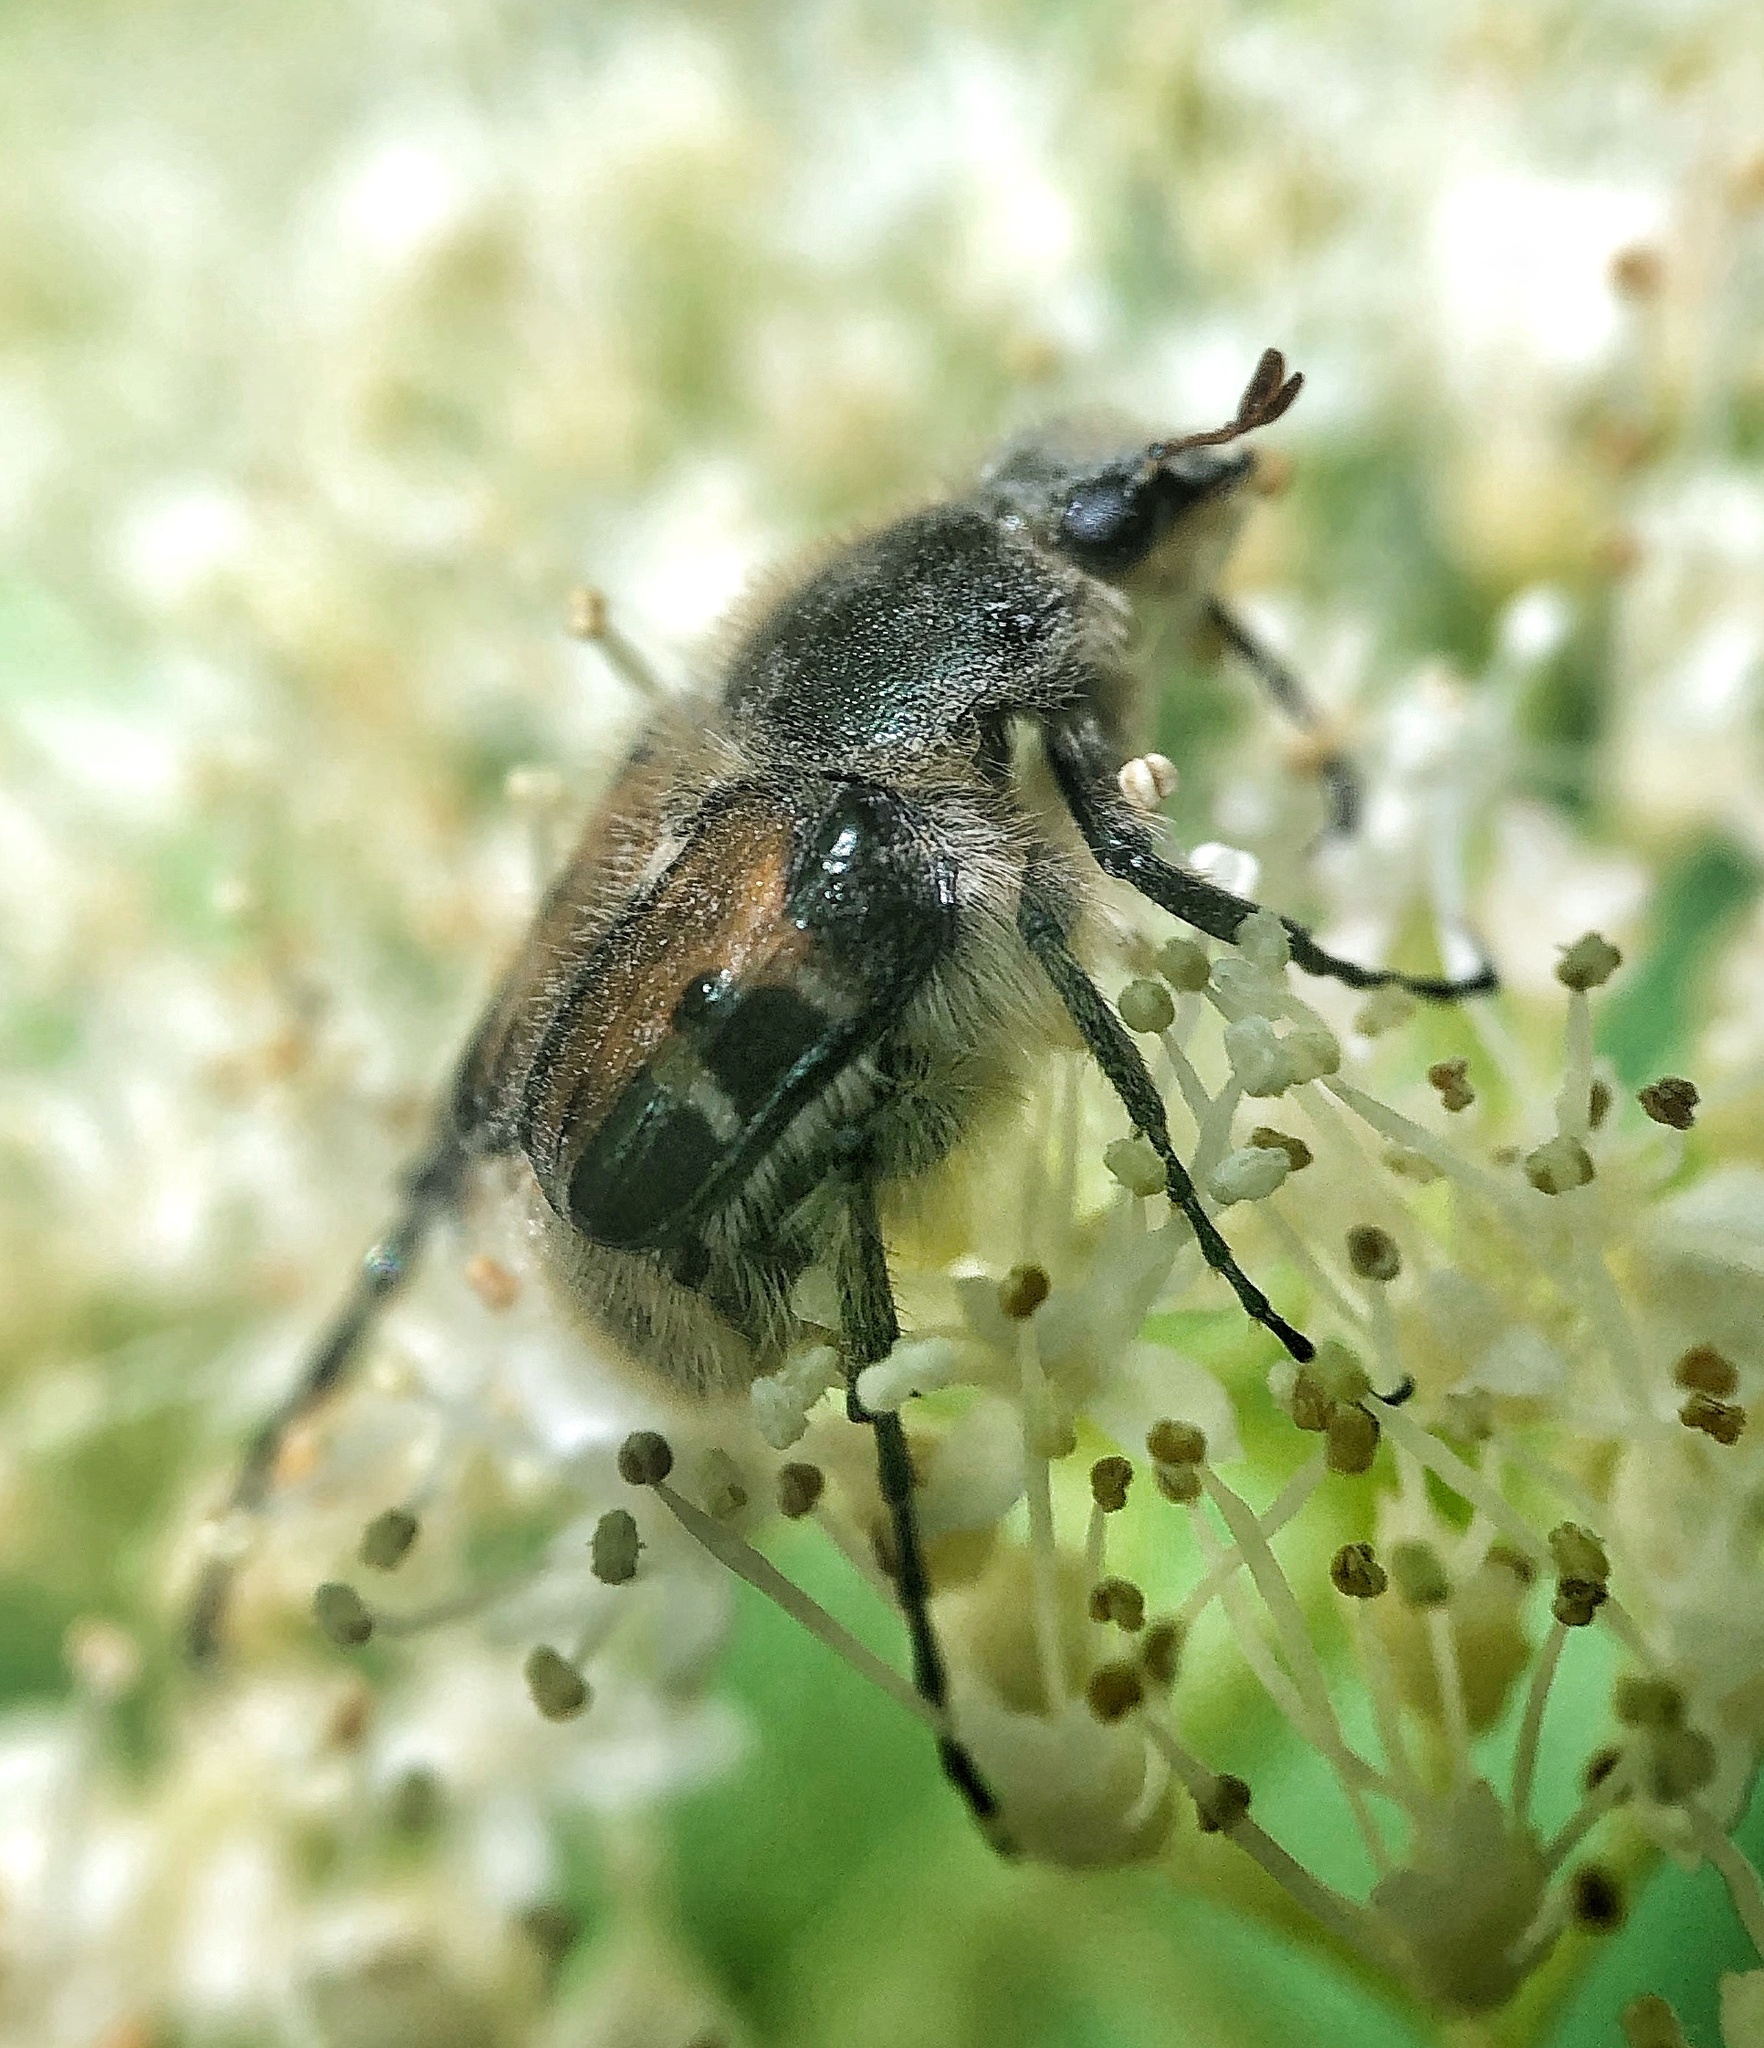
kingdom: Animalia
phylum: Arthropoda
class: Insecta
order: Coleoptera
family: Scarabaeidae
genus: Trichiotinus
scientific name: Trichiotinus affinis
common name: Hairy flower scarab
